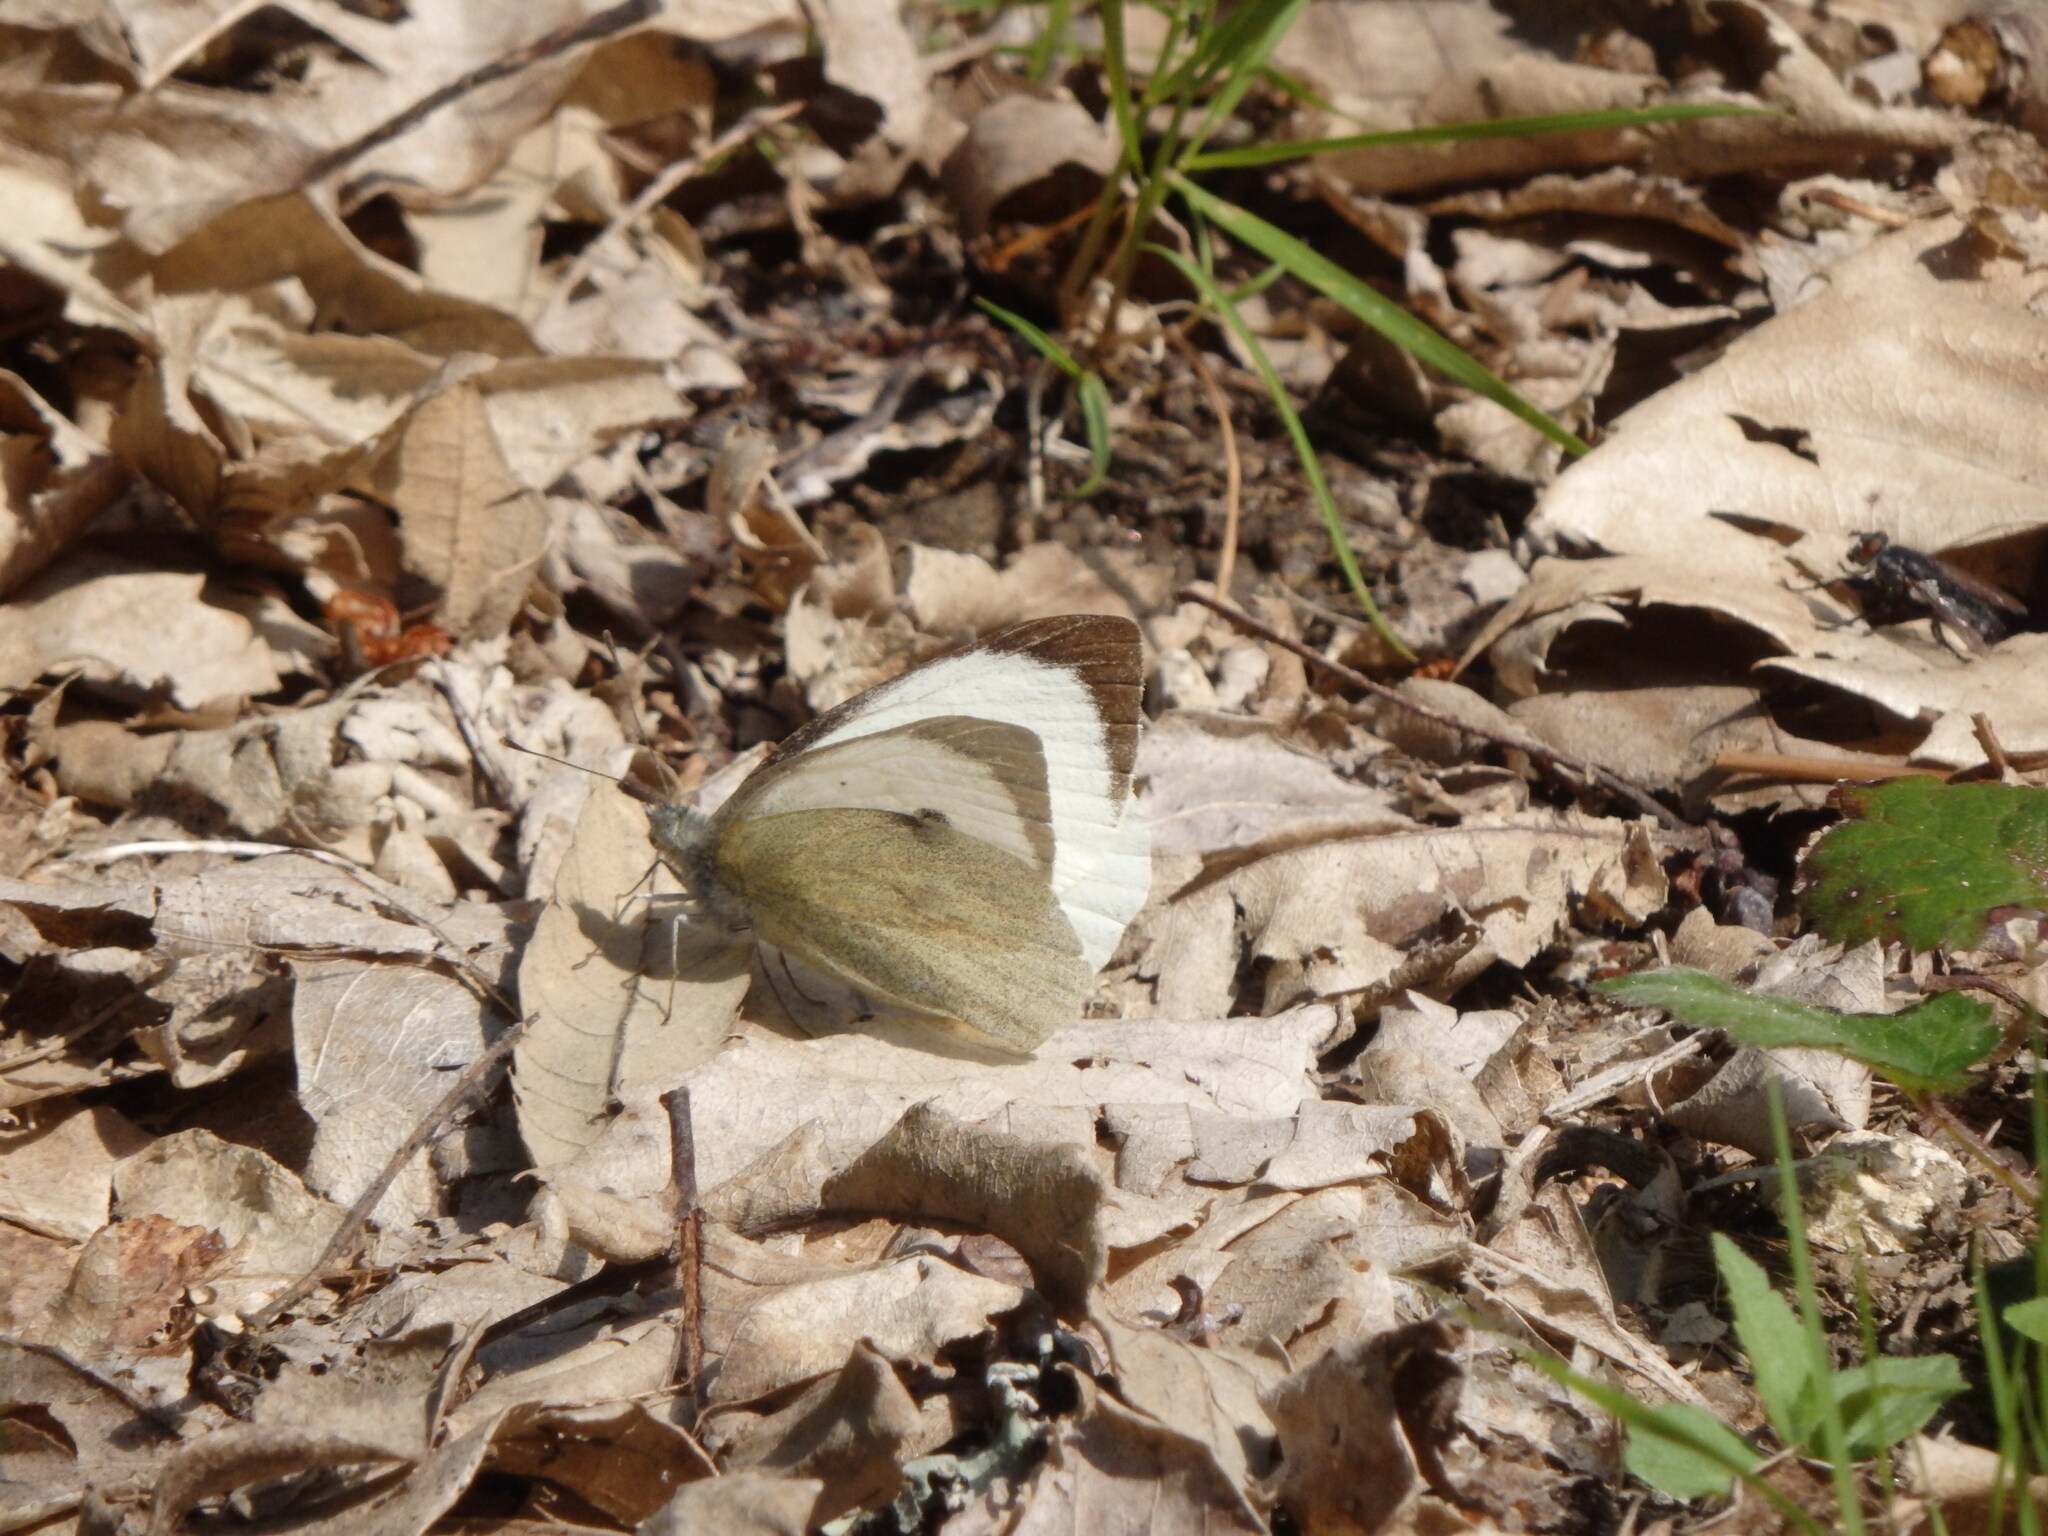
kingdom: Animalia
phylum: Arthropoda
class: Insecta
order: Lepidoptera
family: Pieridae
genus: Pieris
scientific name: Pieris brassicae
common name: Large white
